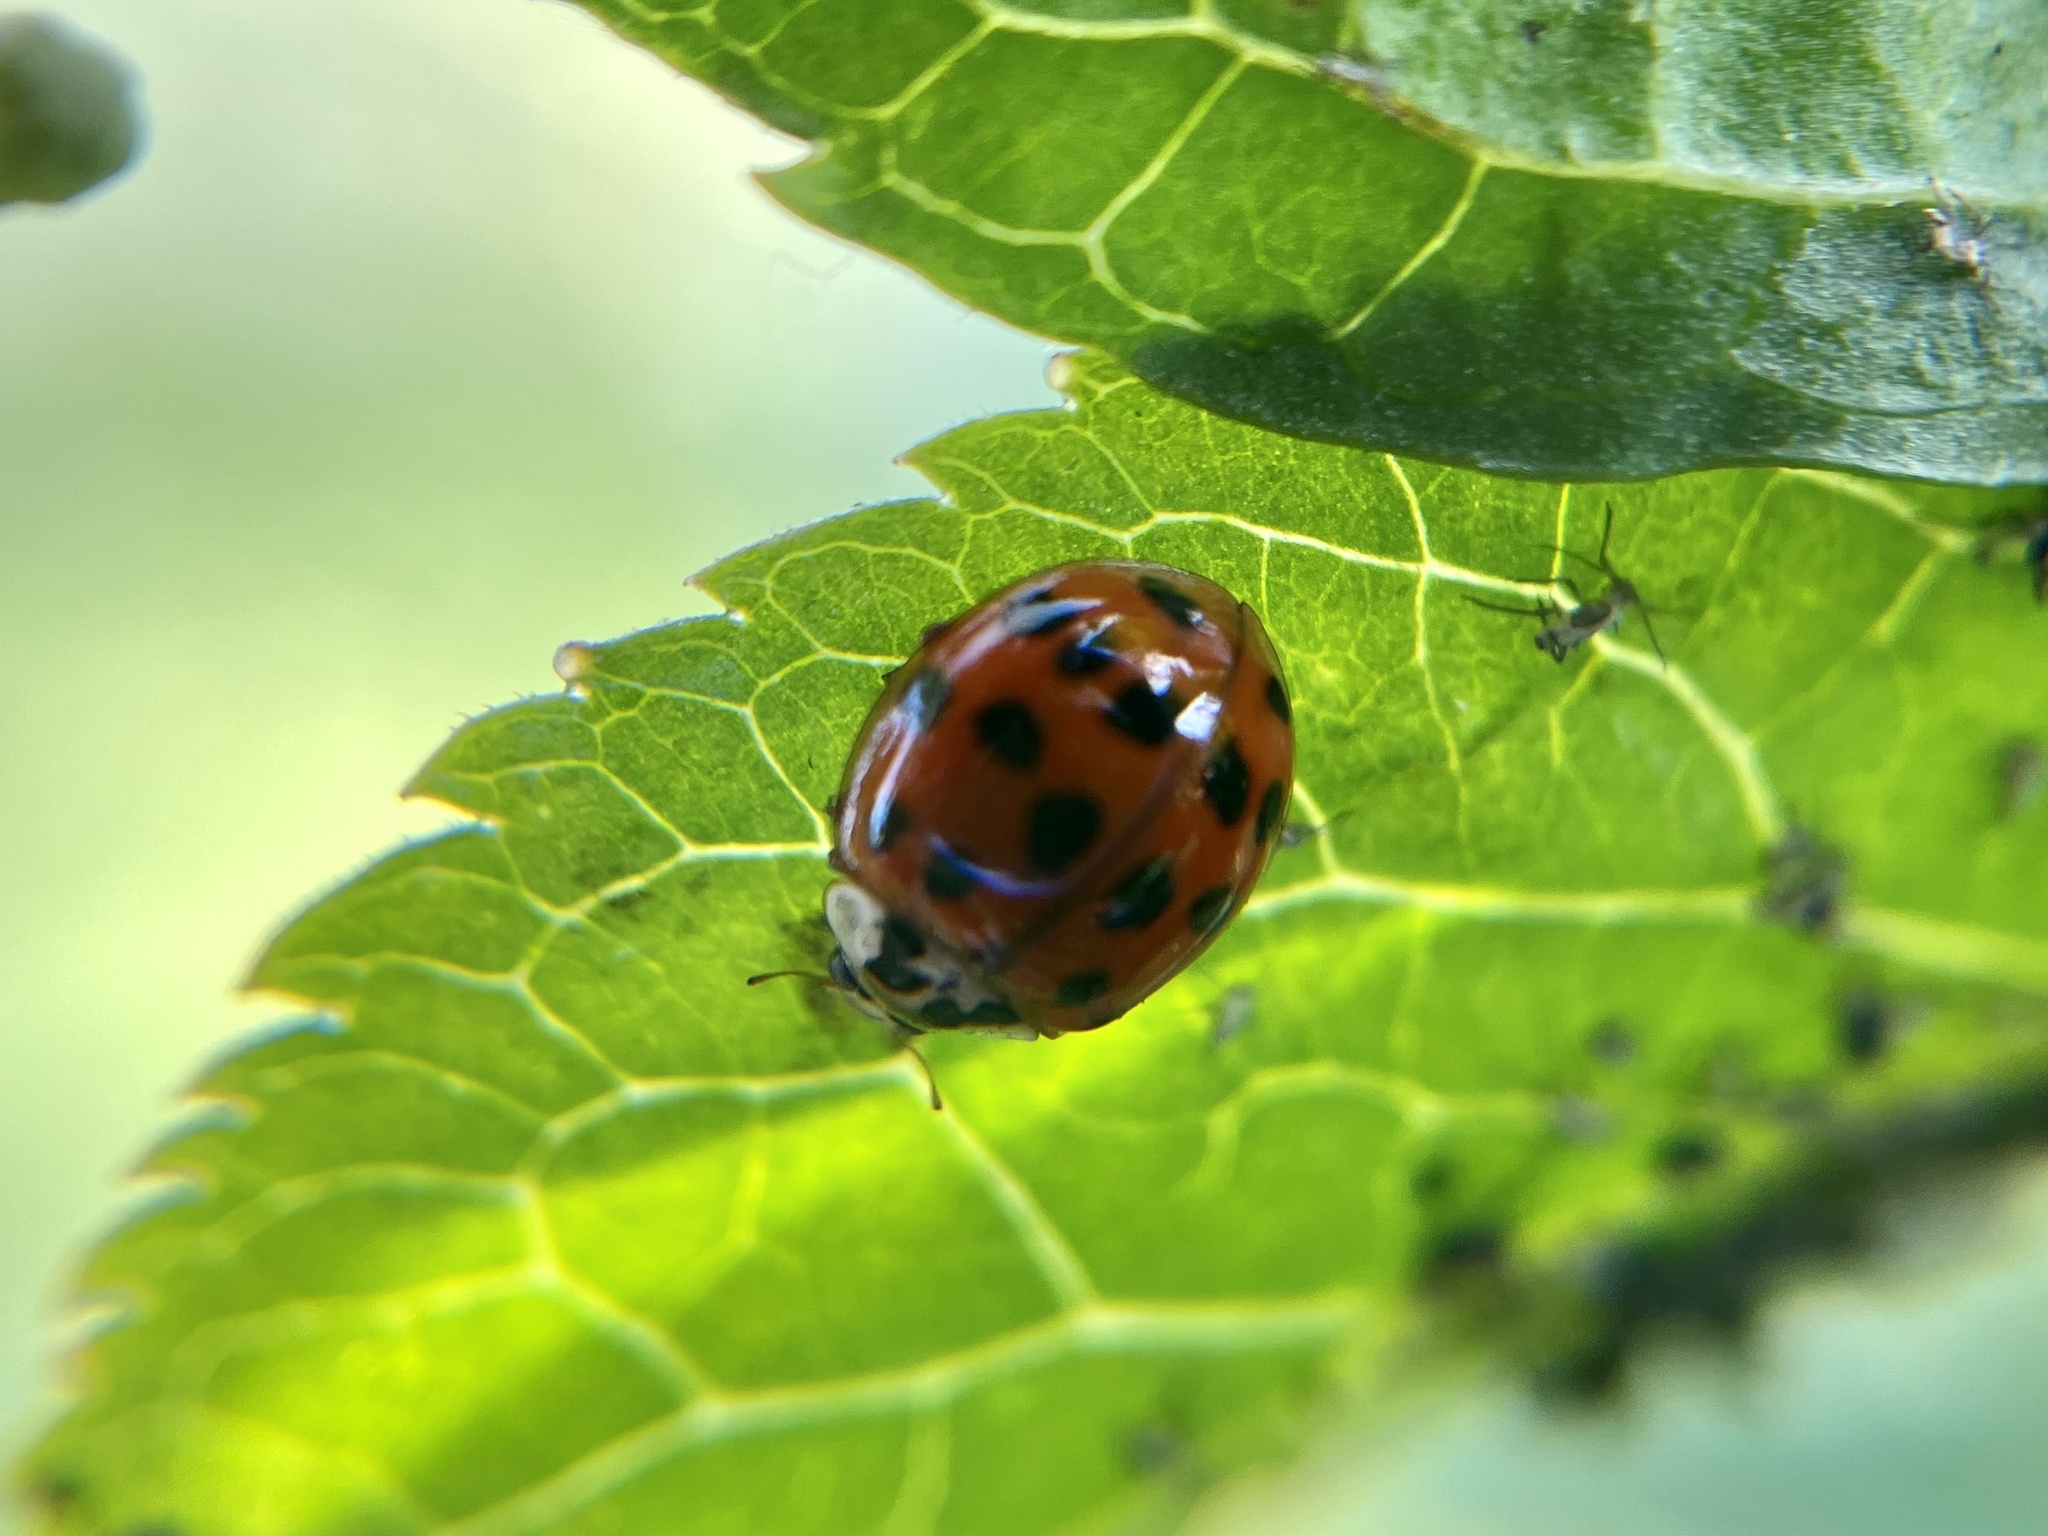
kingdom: Animalia
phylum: Arthropoda
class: Insecta
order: Coleoptera
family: Coccinellidae
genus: Harmonia
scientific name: Harmonia axyridis
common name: Harlequin ladybird
